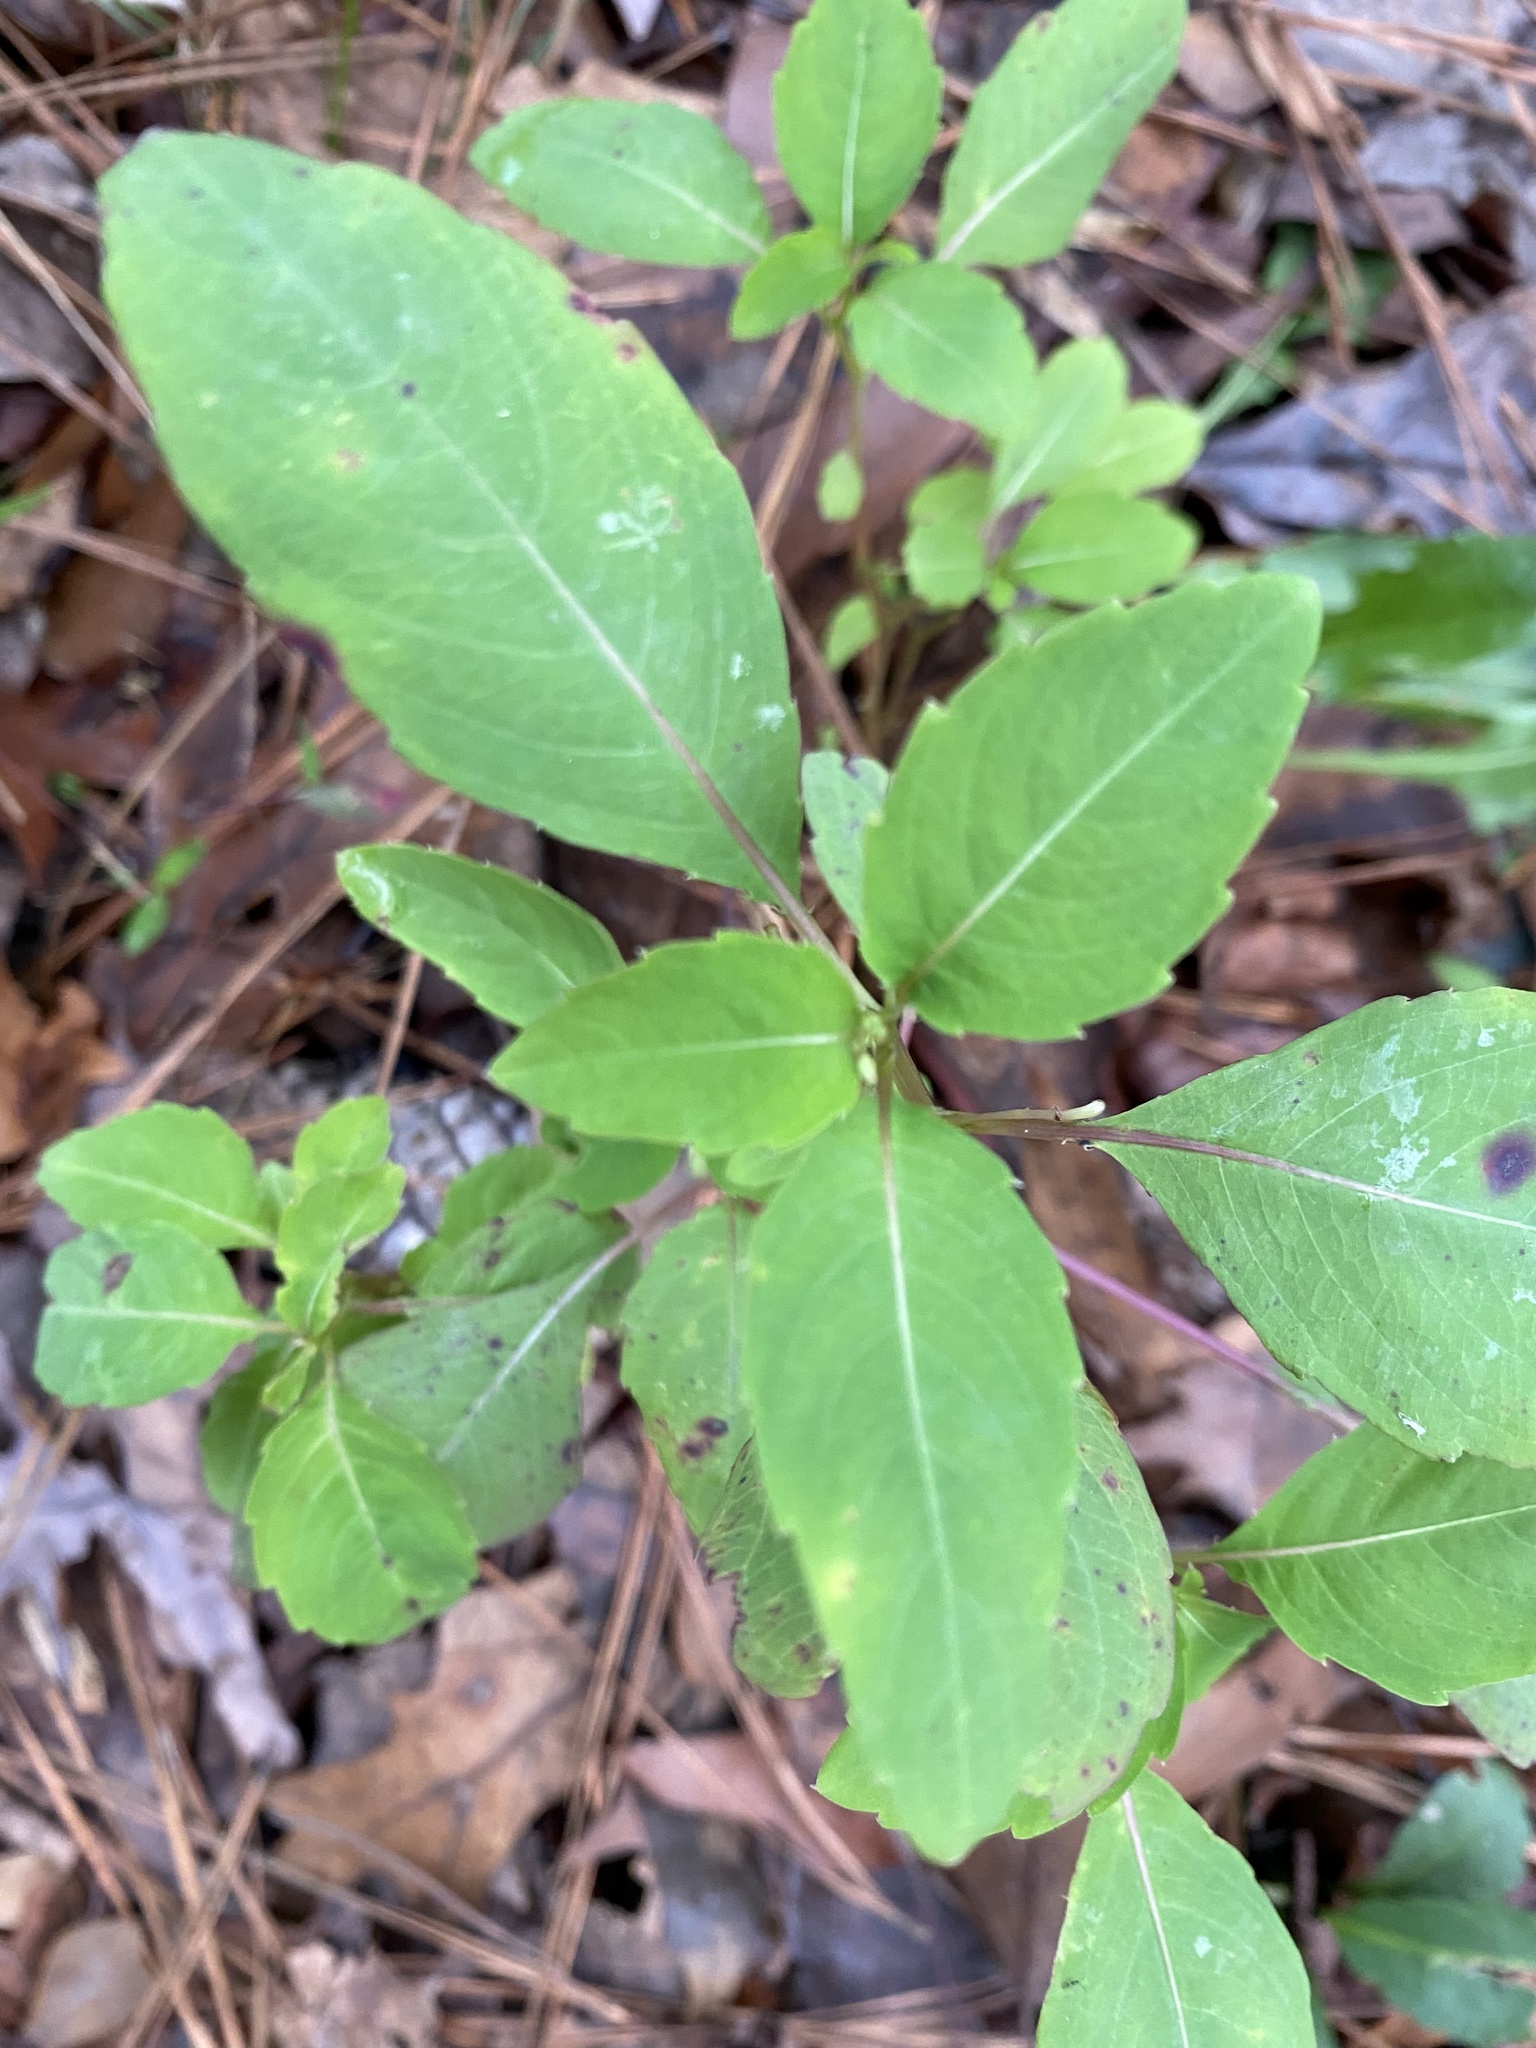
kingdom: Plantae
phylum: Tracheophyta
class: Magnoliopsida
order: Ericales
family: Balsaminaceae
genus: Impatiens
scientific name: Impatiens capensis
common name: Orange balsam
